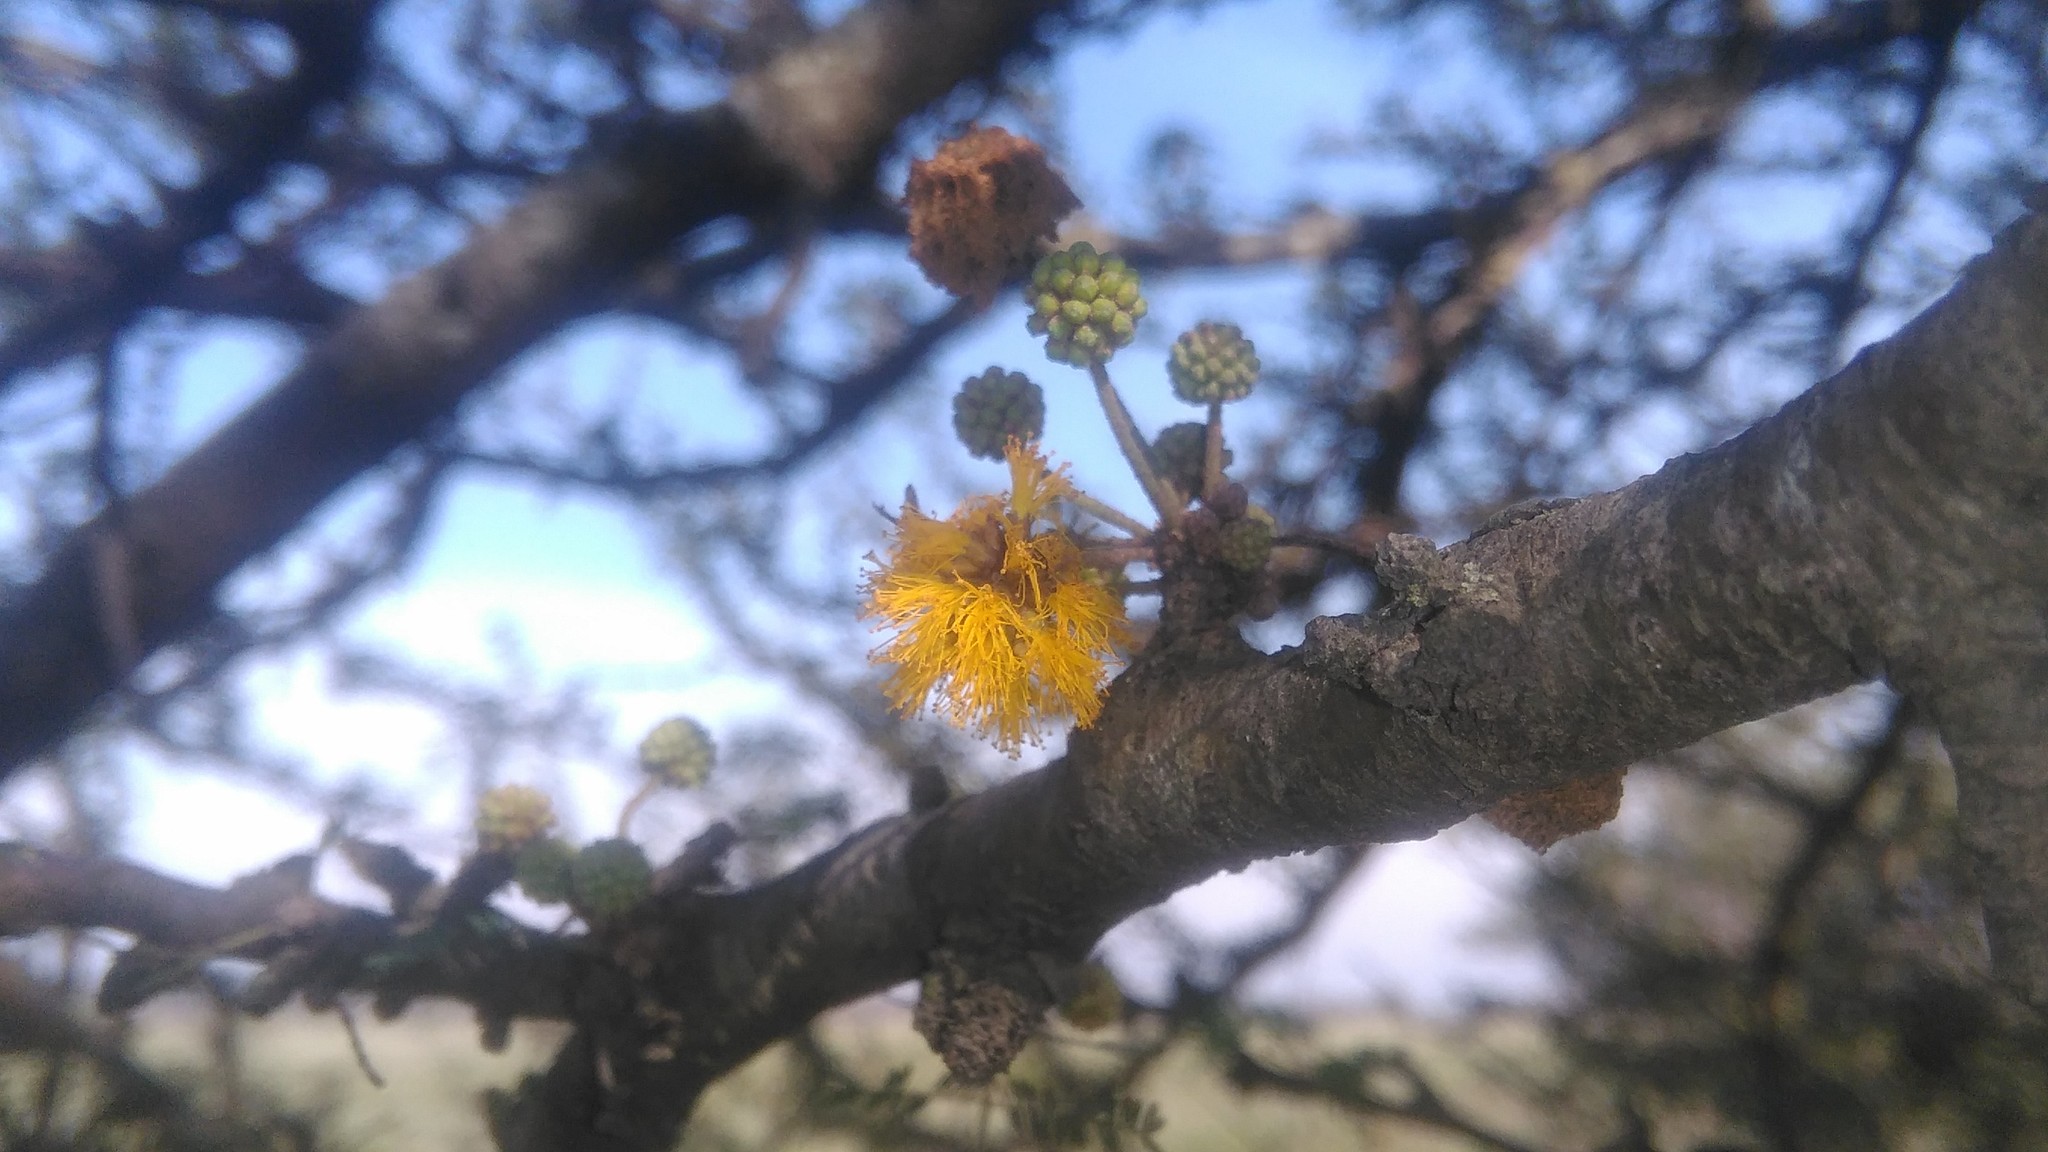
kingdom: Plantae
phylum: Tracheophyta
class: Magnoliopsida
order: Fabales
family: Fabaceae
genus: Vachellia
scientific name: Vachellia caven
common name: Roman cassie
